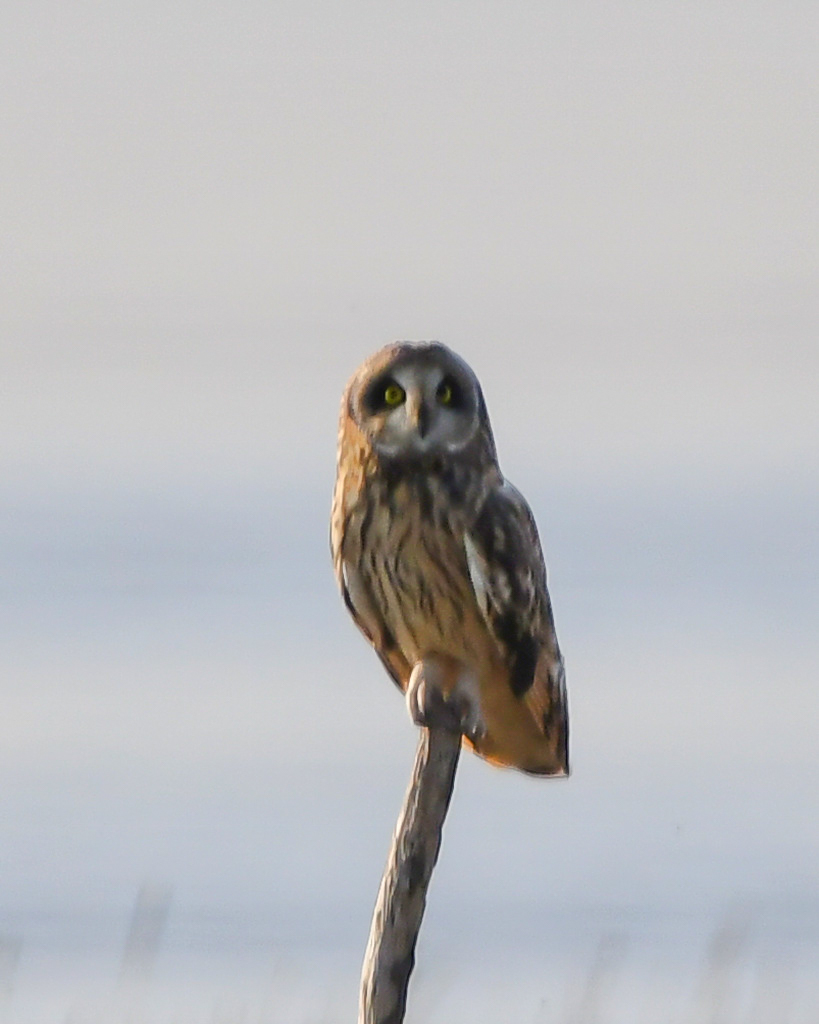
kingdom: Animalia
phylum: Chordata
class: Aves
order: Strigiformes
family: Strigidae
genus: Asio
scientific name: Asio flammeus
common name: Short-eared owl
